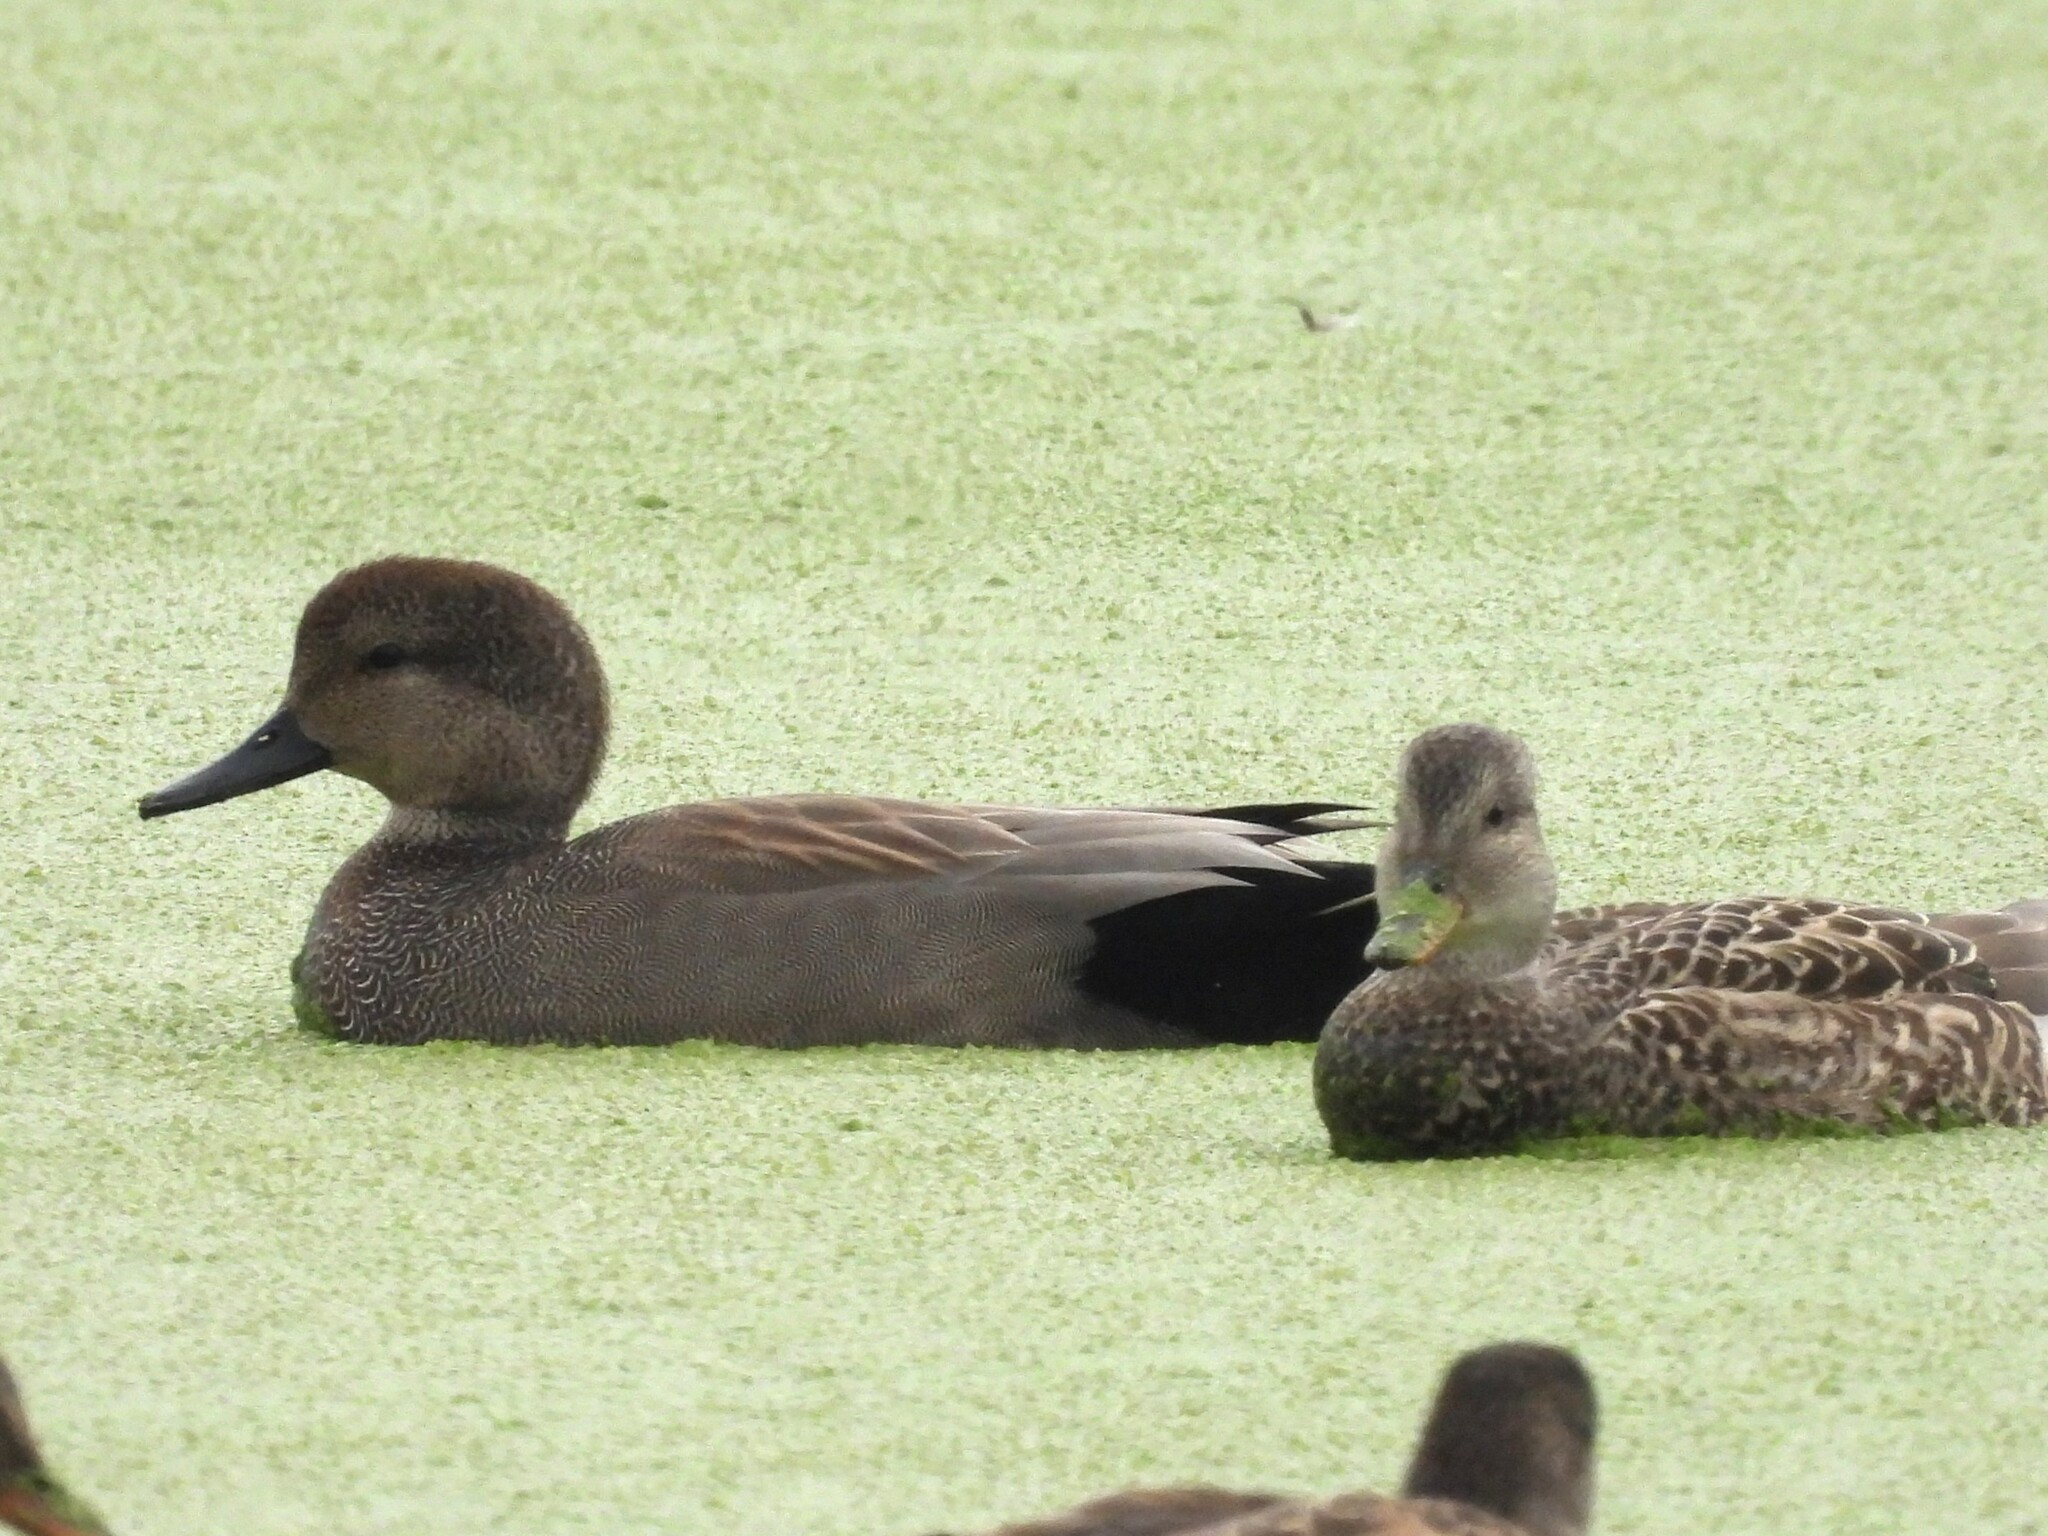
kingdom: Animalia
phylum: Chordata
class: Aves
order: Anseriformes
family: Anatidae
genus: Mareca
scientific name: Mareca strepera
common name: Gadwall
